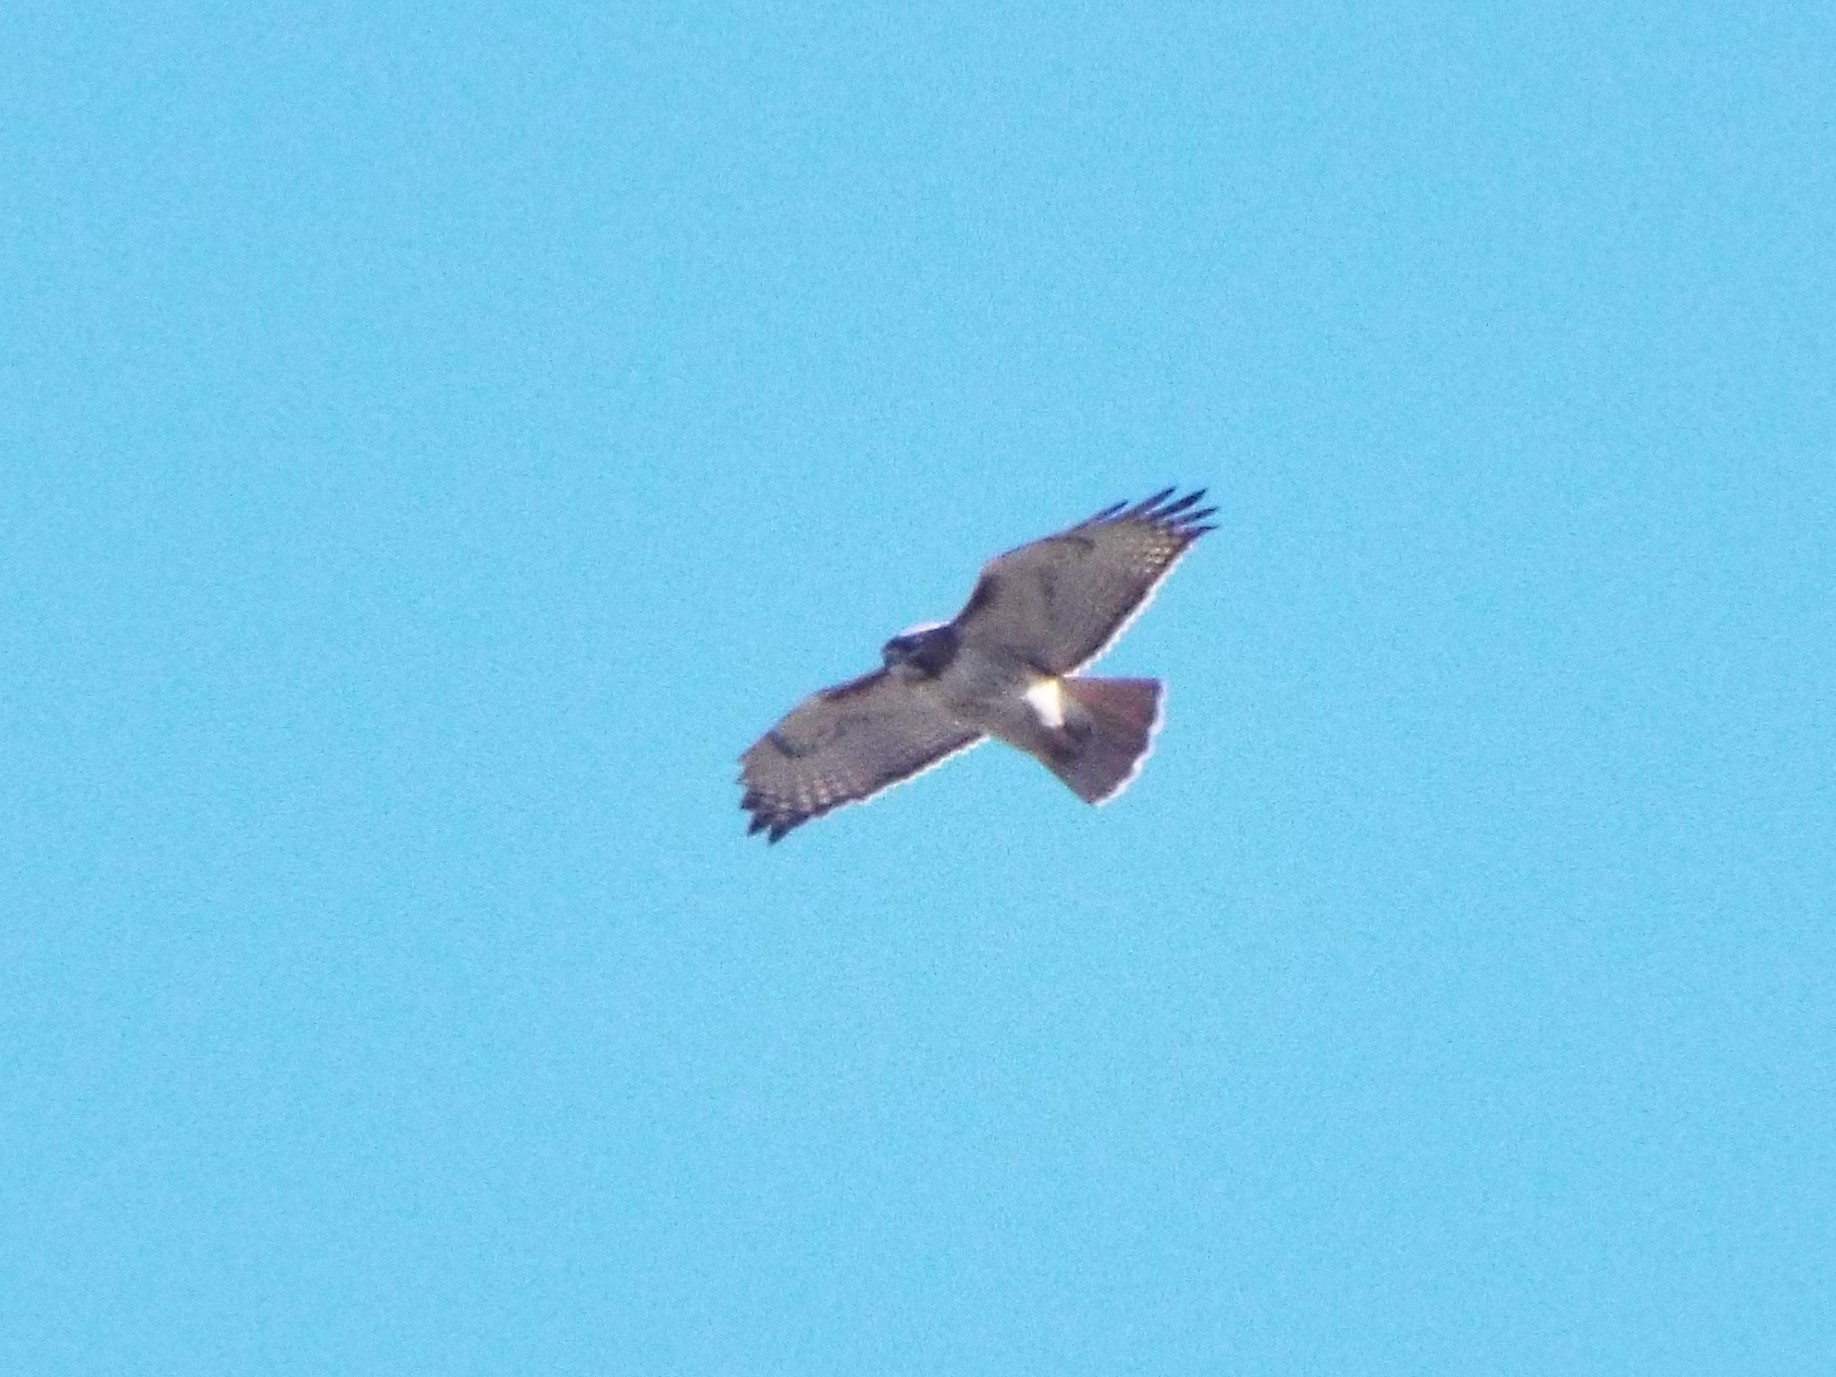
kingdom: Animalia
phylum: Chordata
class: Aves
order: Accipitriformes
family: Accipitridae
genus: Buteo
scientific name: Buteo jamaicensis
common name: Red-tailed hawk
